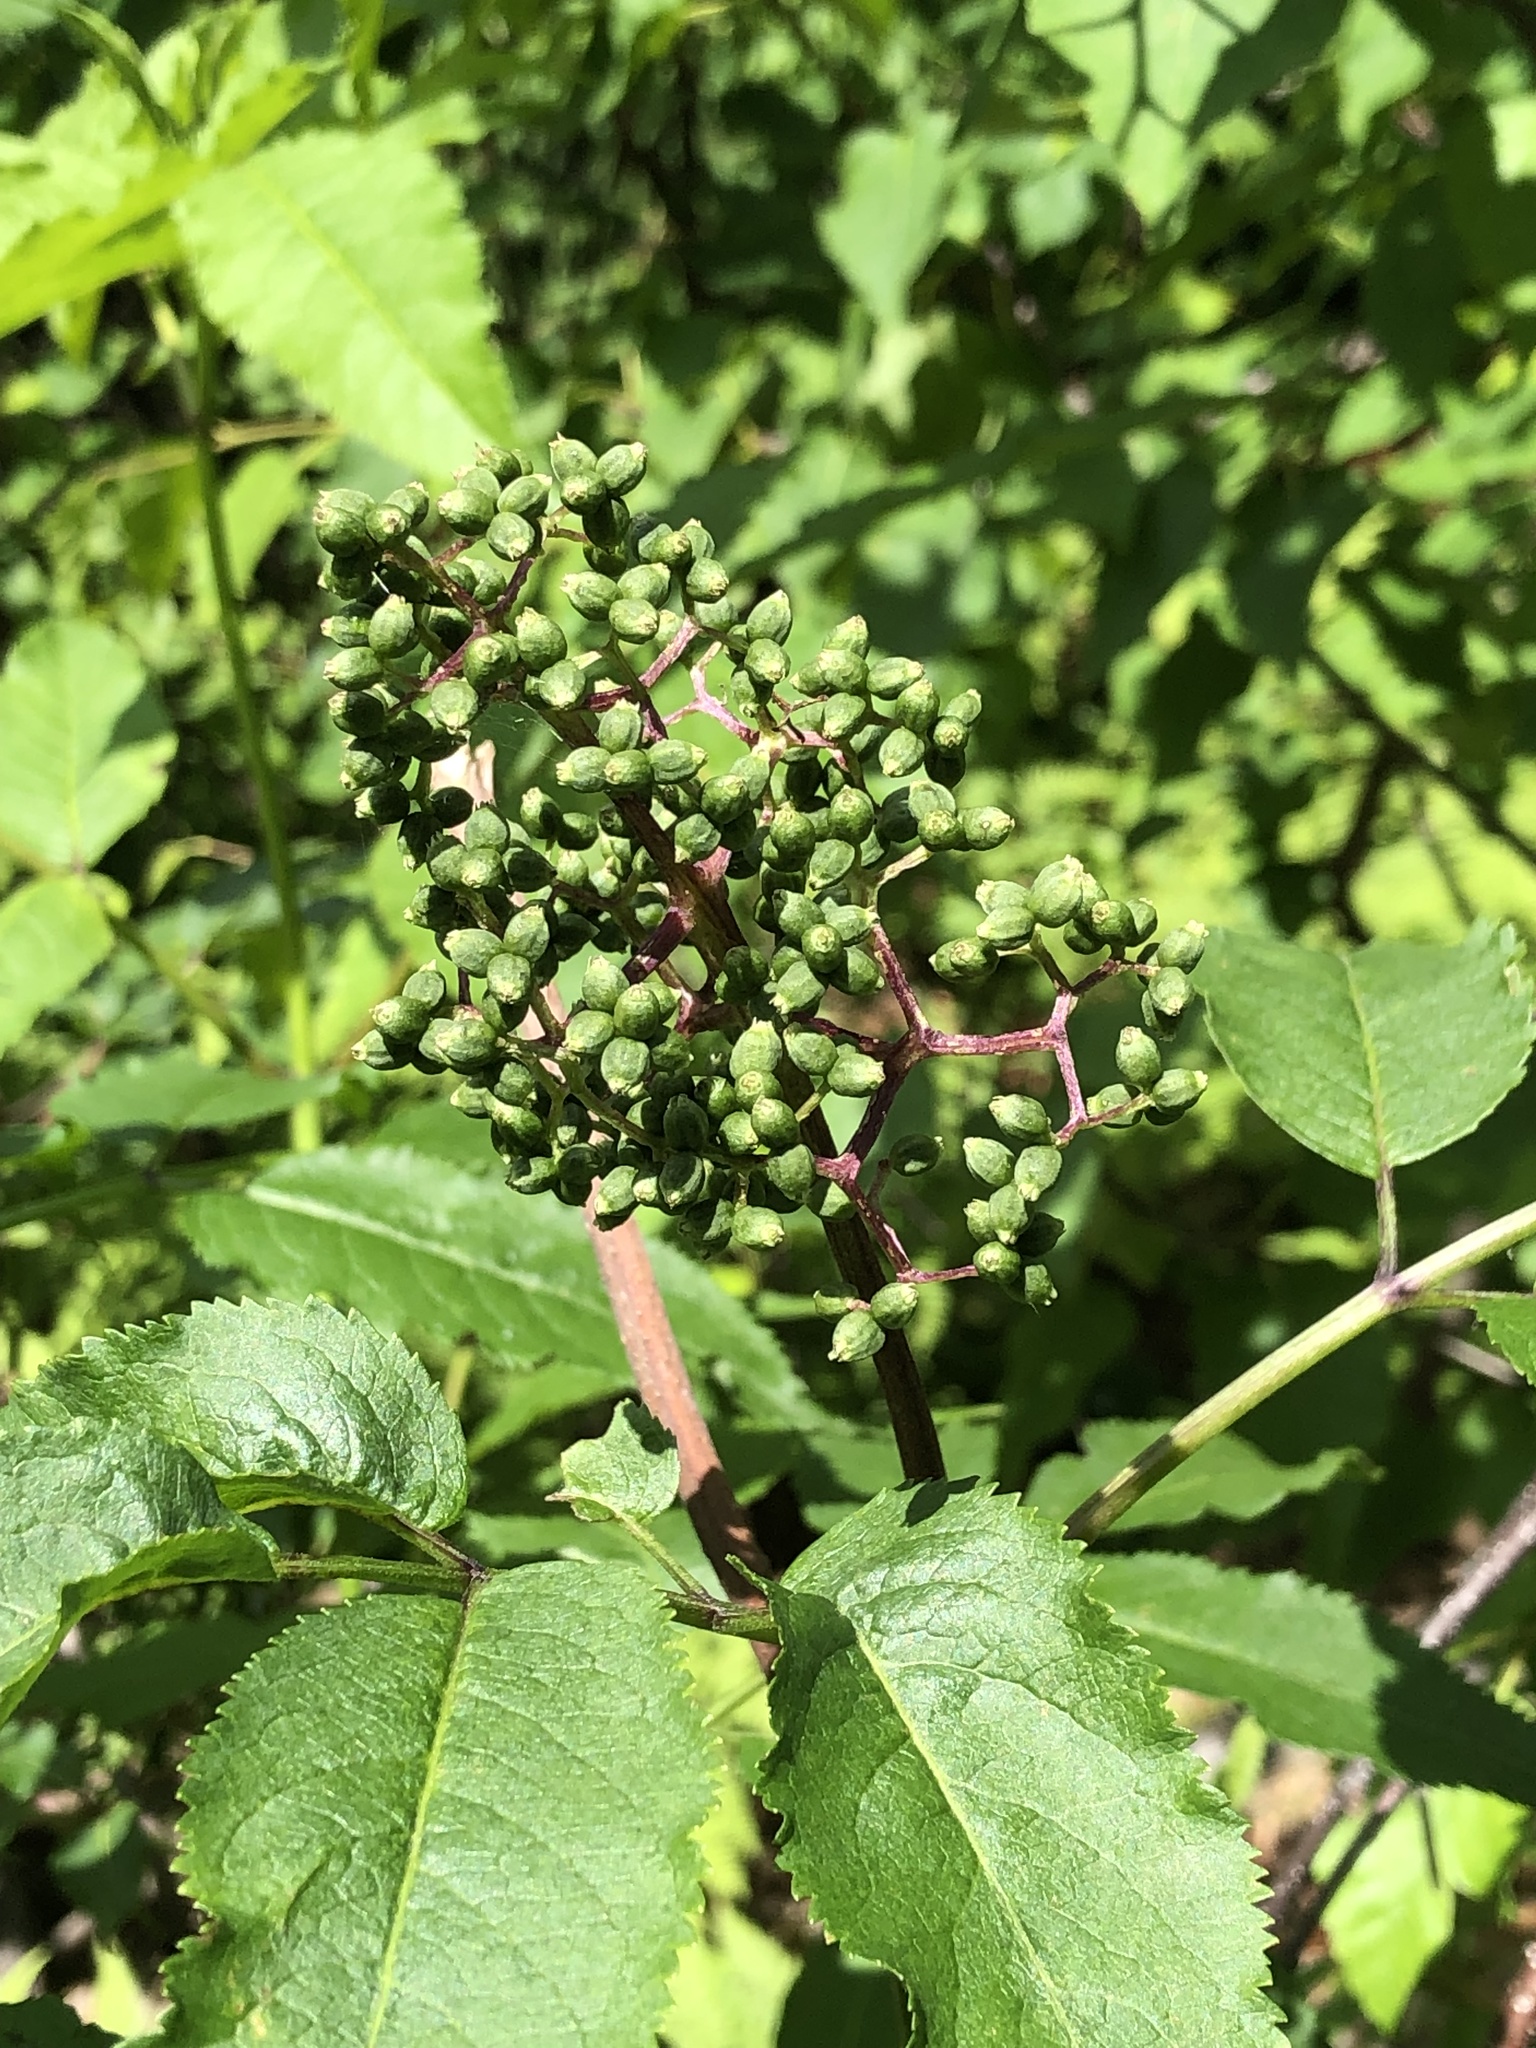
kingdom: Plantae
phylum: Tracheophyta
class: Magnoliopsida
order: Dipsacales
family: Viburnaceae
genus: Sambucus
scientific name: Sambucus racemosa
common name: Red-berried elder
